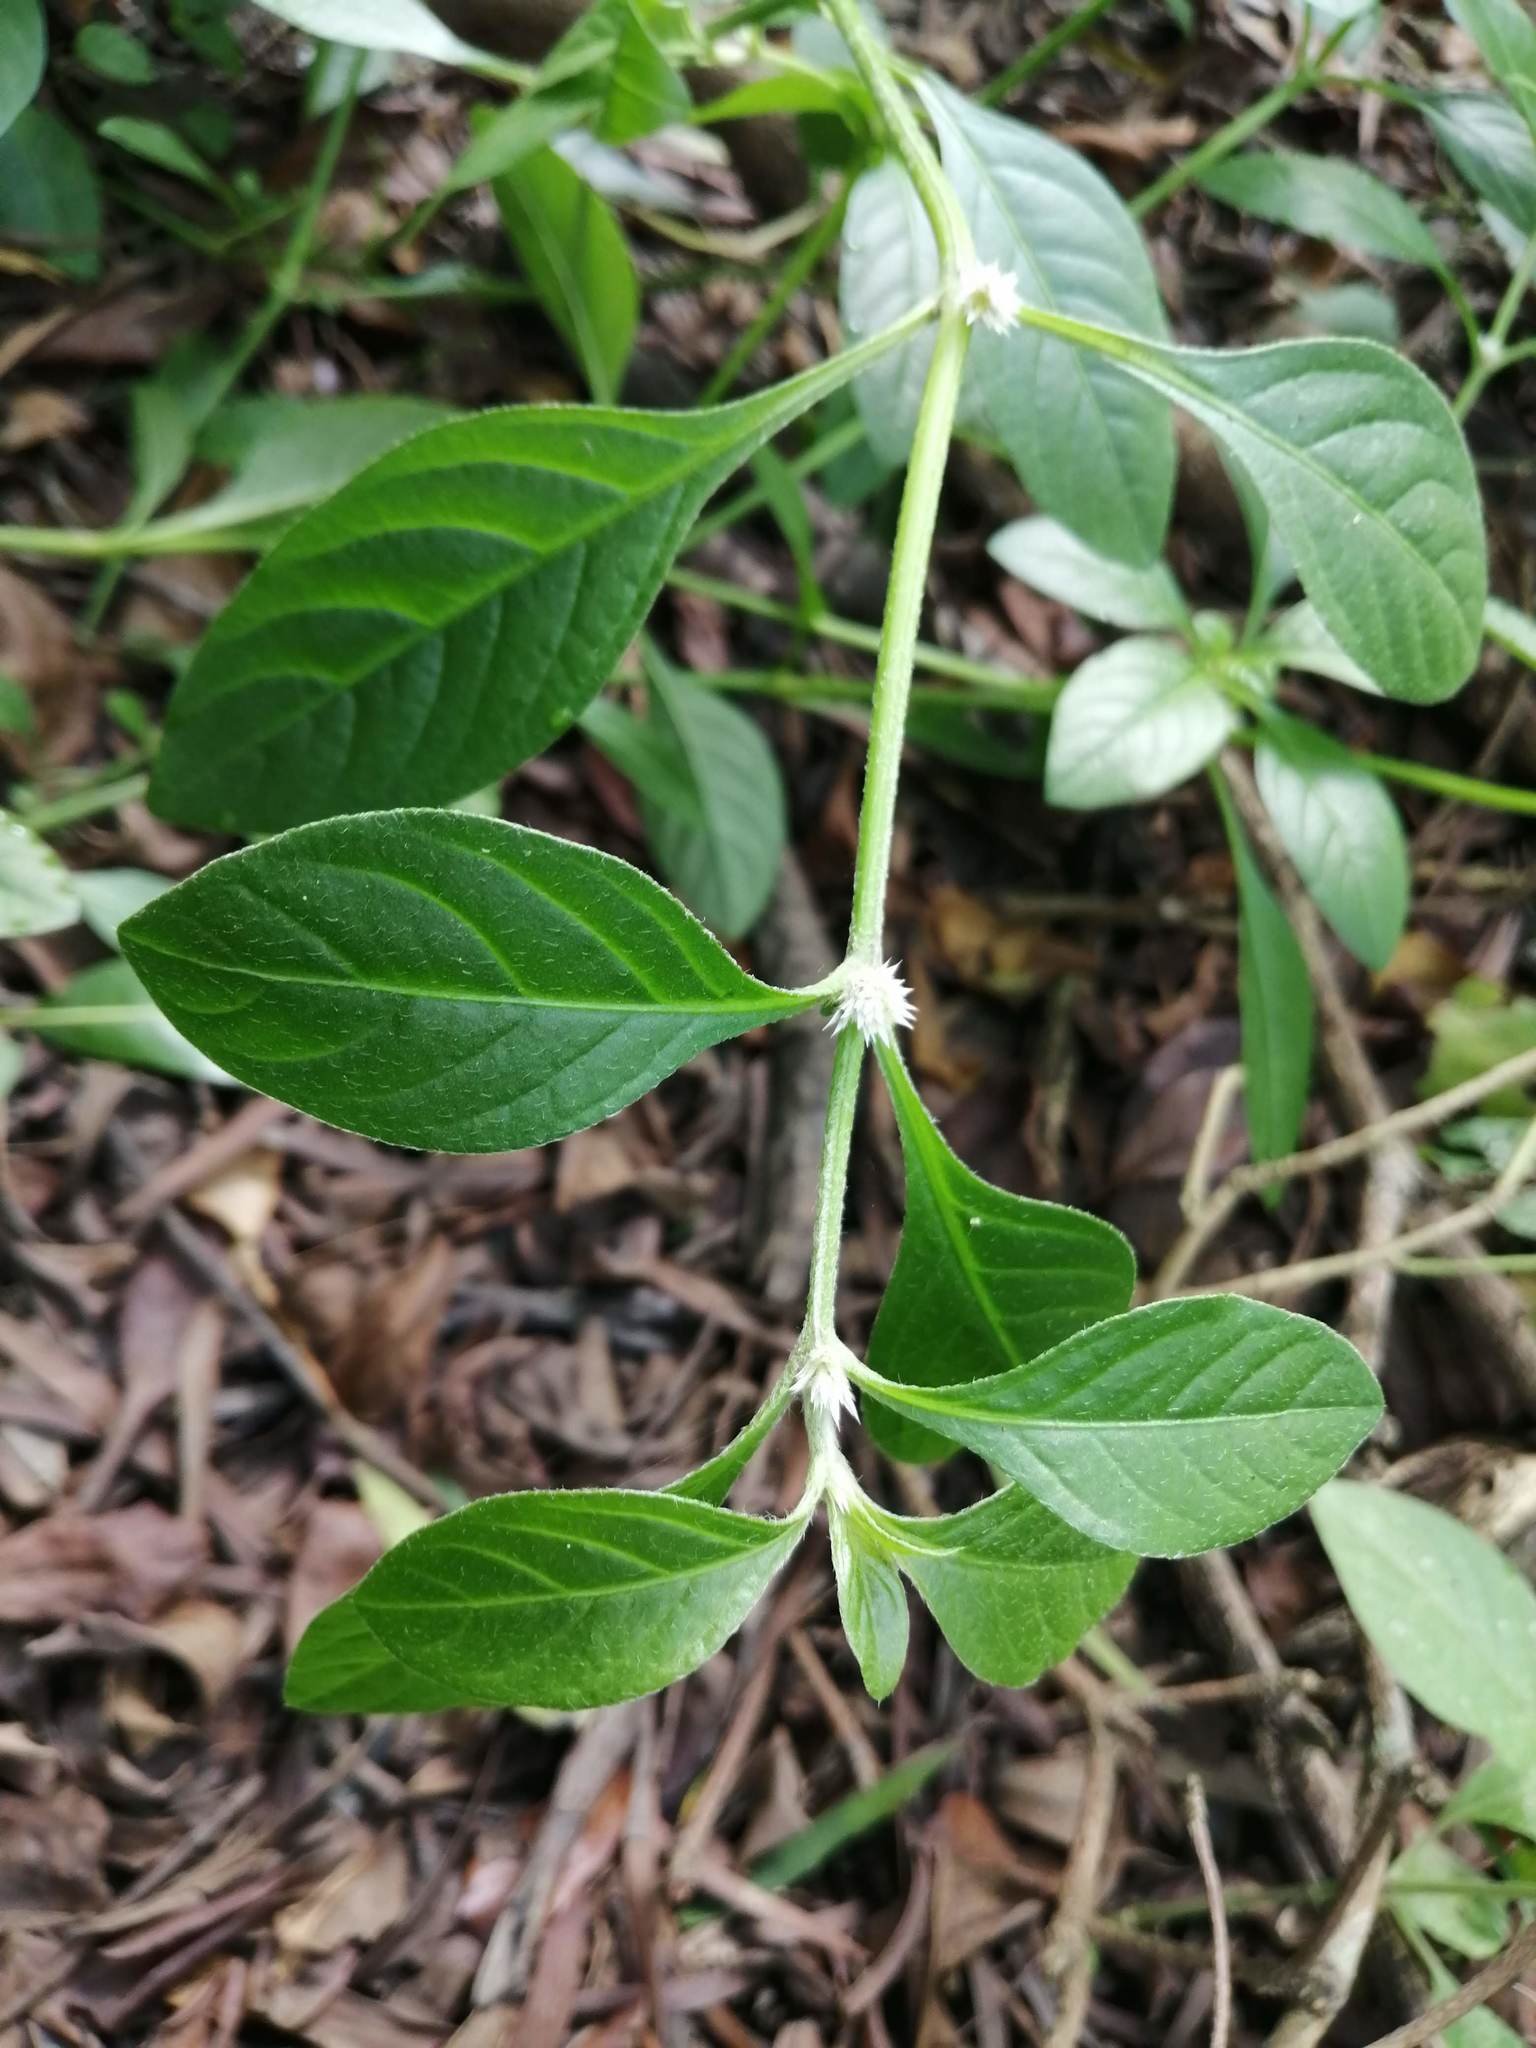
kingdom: Plantae
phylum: Tracheophyta
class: Magnoliopsida
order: Caryophyllales
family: Amaranthaceae
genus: Alternanthera
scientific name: Alternanthera bettzickiana
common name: Calico-plant
